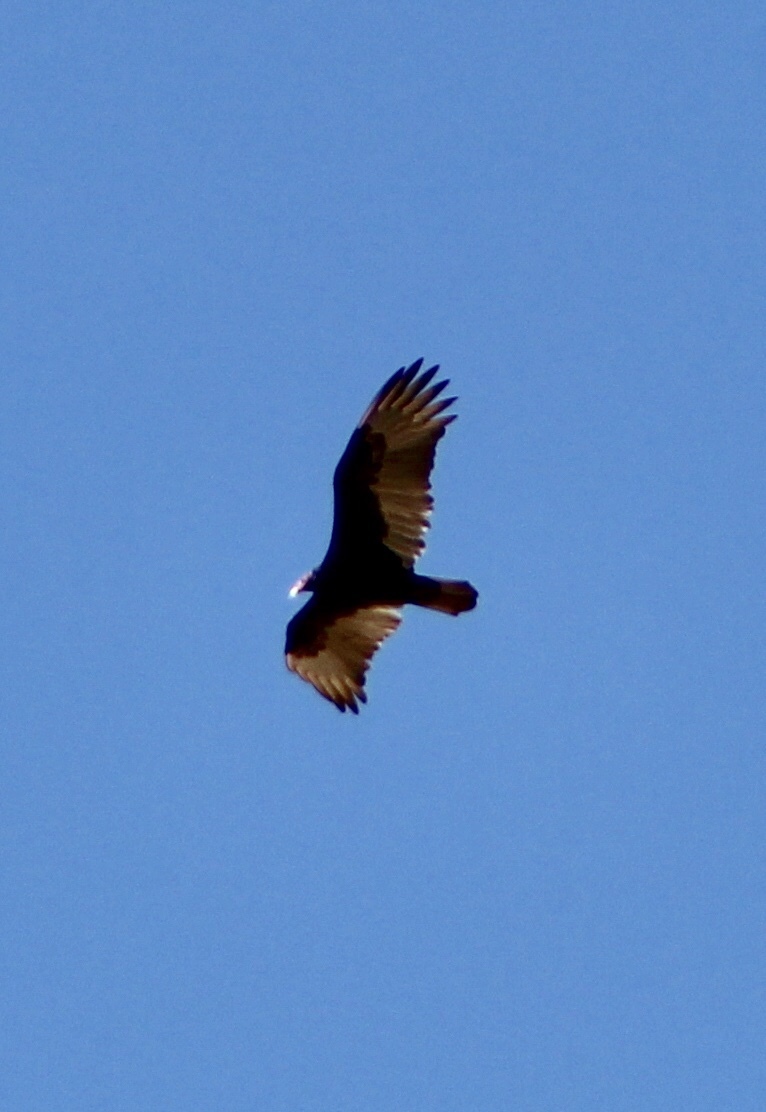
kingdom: Animalia
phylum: Chordata
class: Aves
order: Accipitriformes
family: Cathartidae
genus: Cathartes
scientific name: Cathartes aura
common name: Turkey vulture
